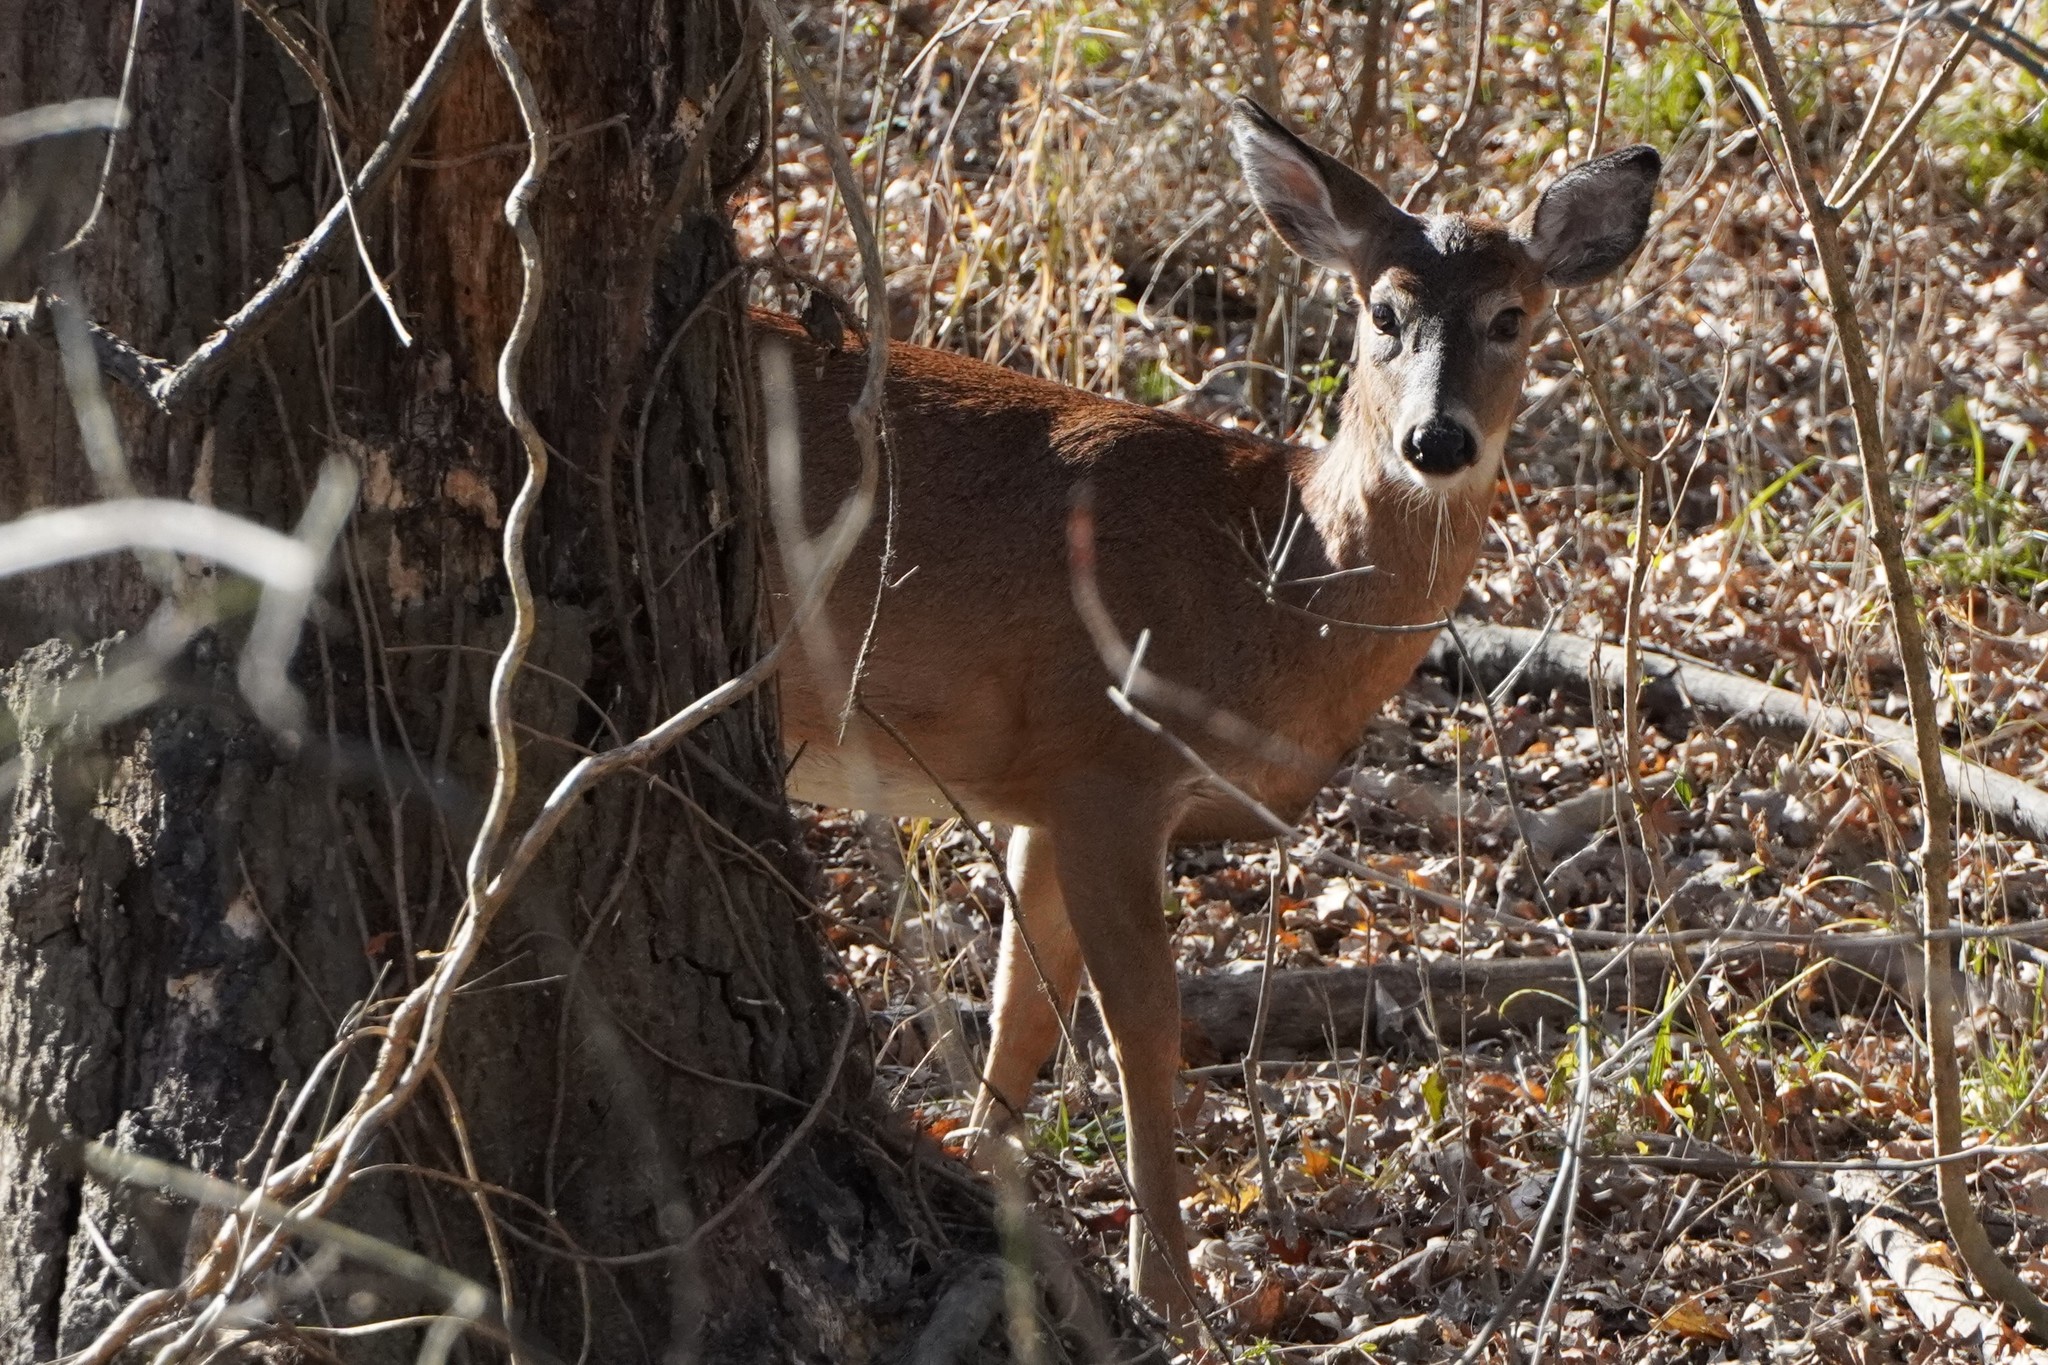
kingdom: Animalia
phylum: Chordata
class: Mammalia
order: Artiodactyla
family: Cervidae
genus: Odocoileus
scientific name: Odocoileus virginianus
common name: White-tailed deer
